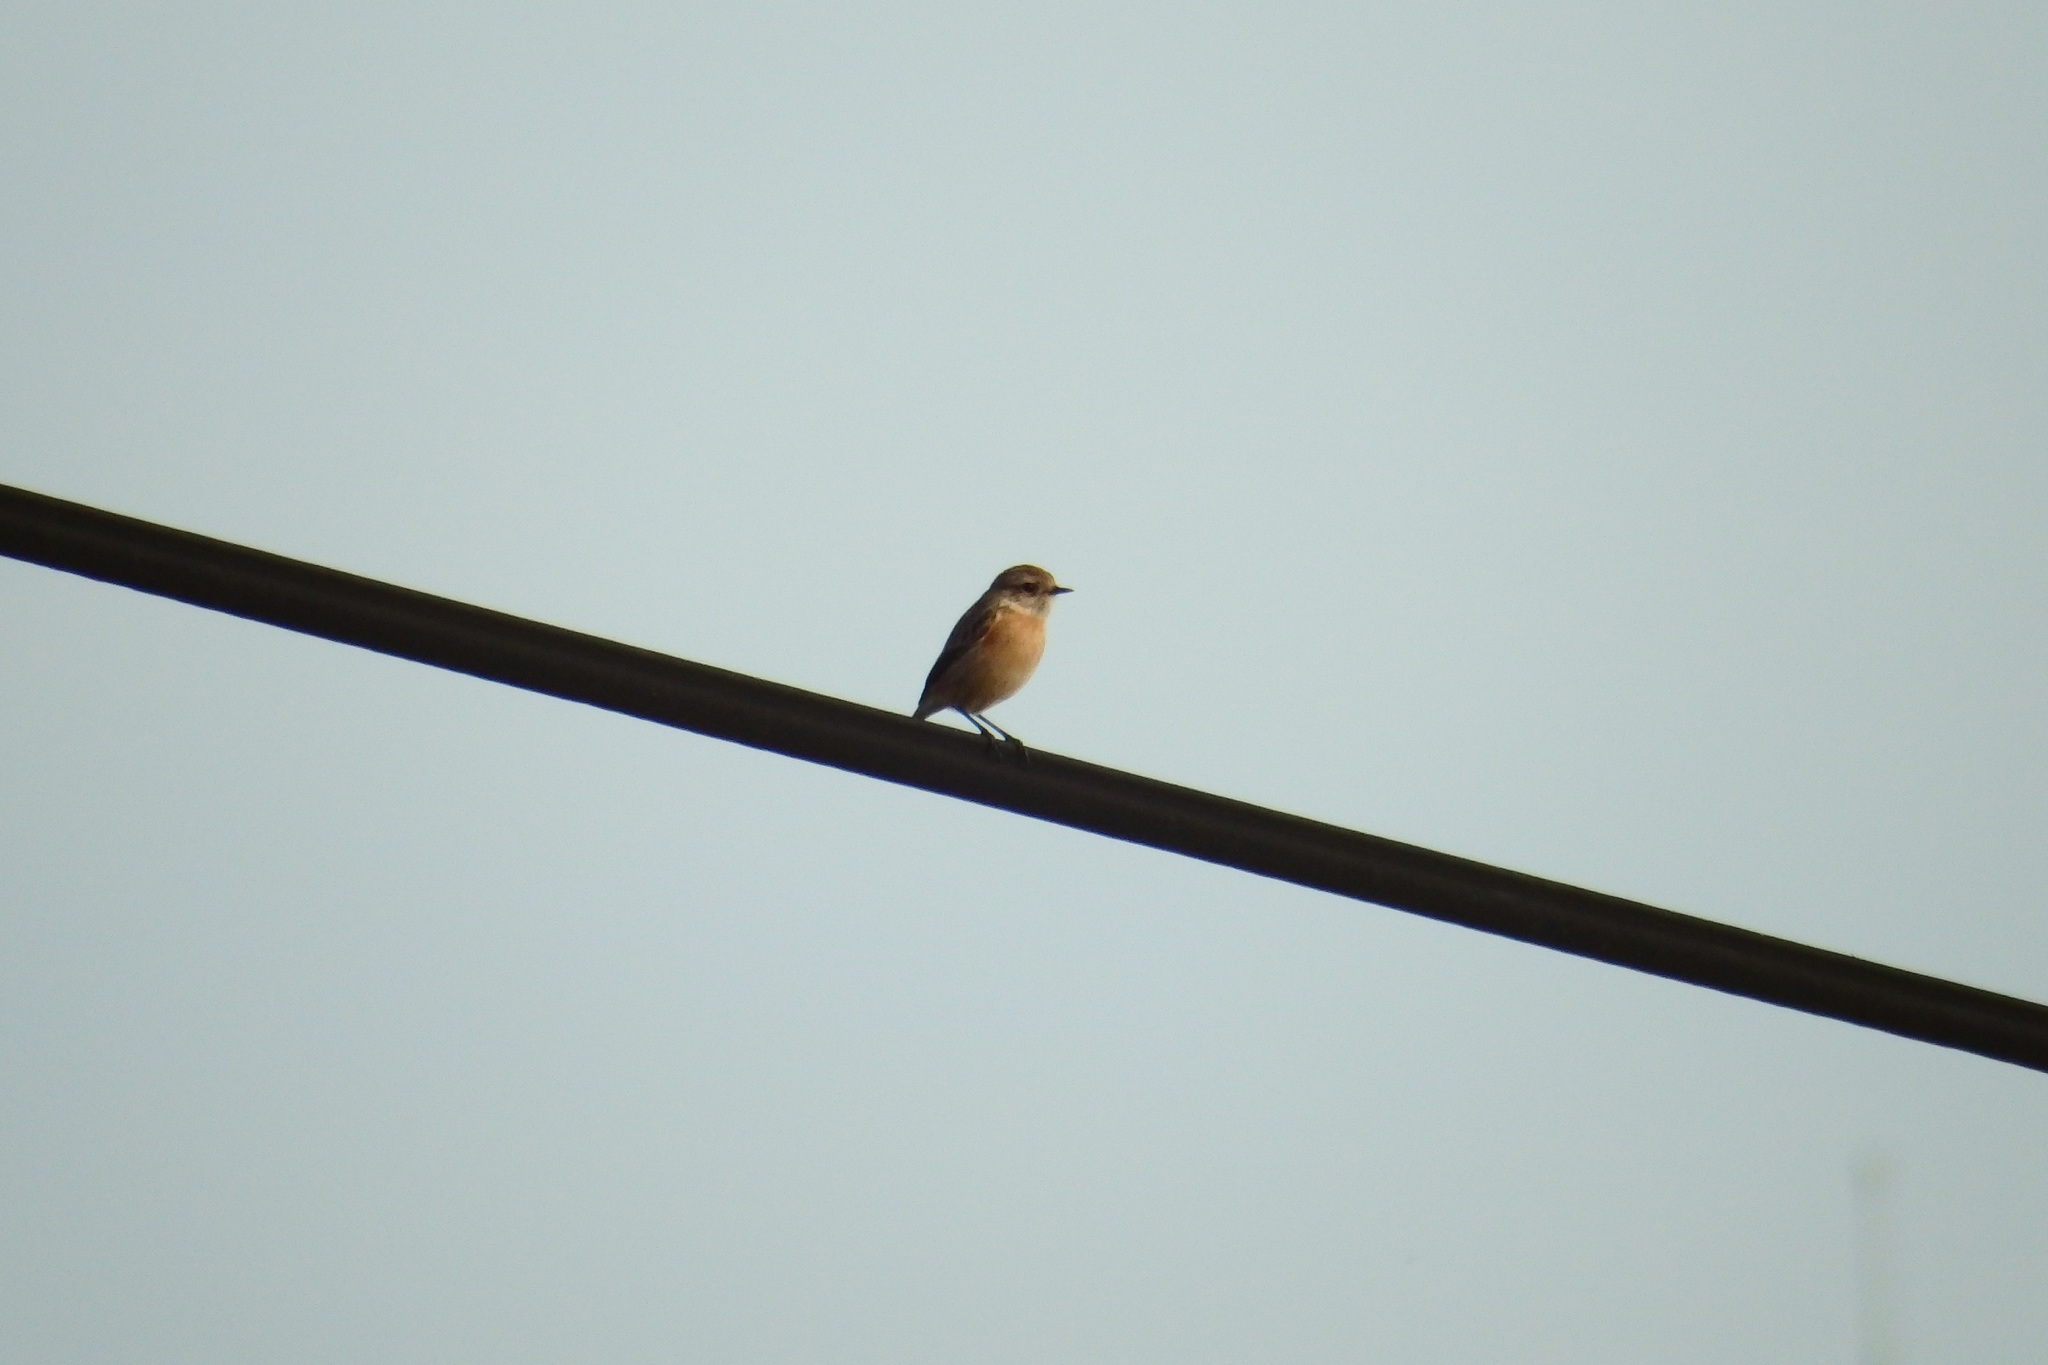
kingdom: Animalia
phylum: Chordata
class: Aves
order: Passeriformes
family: Muscicapidae
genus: Saxicola
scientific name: Saxicola rubicola
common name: European stonechat
